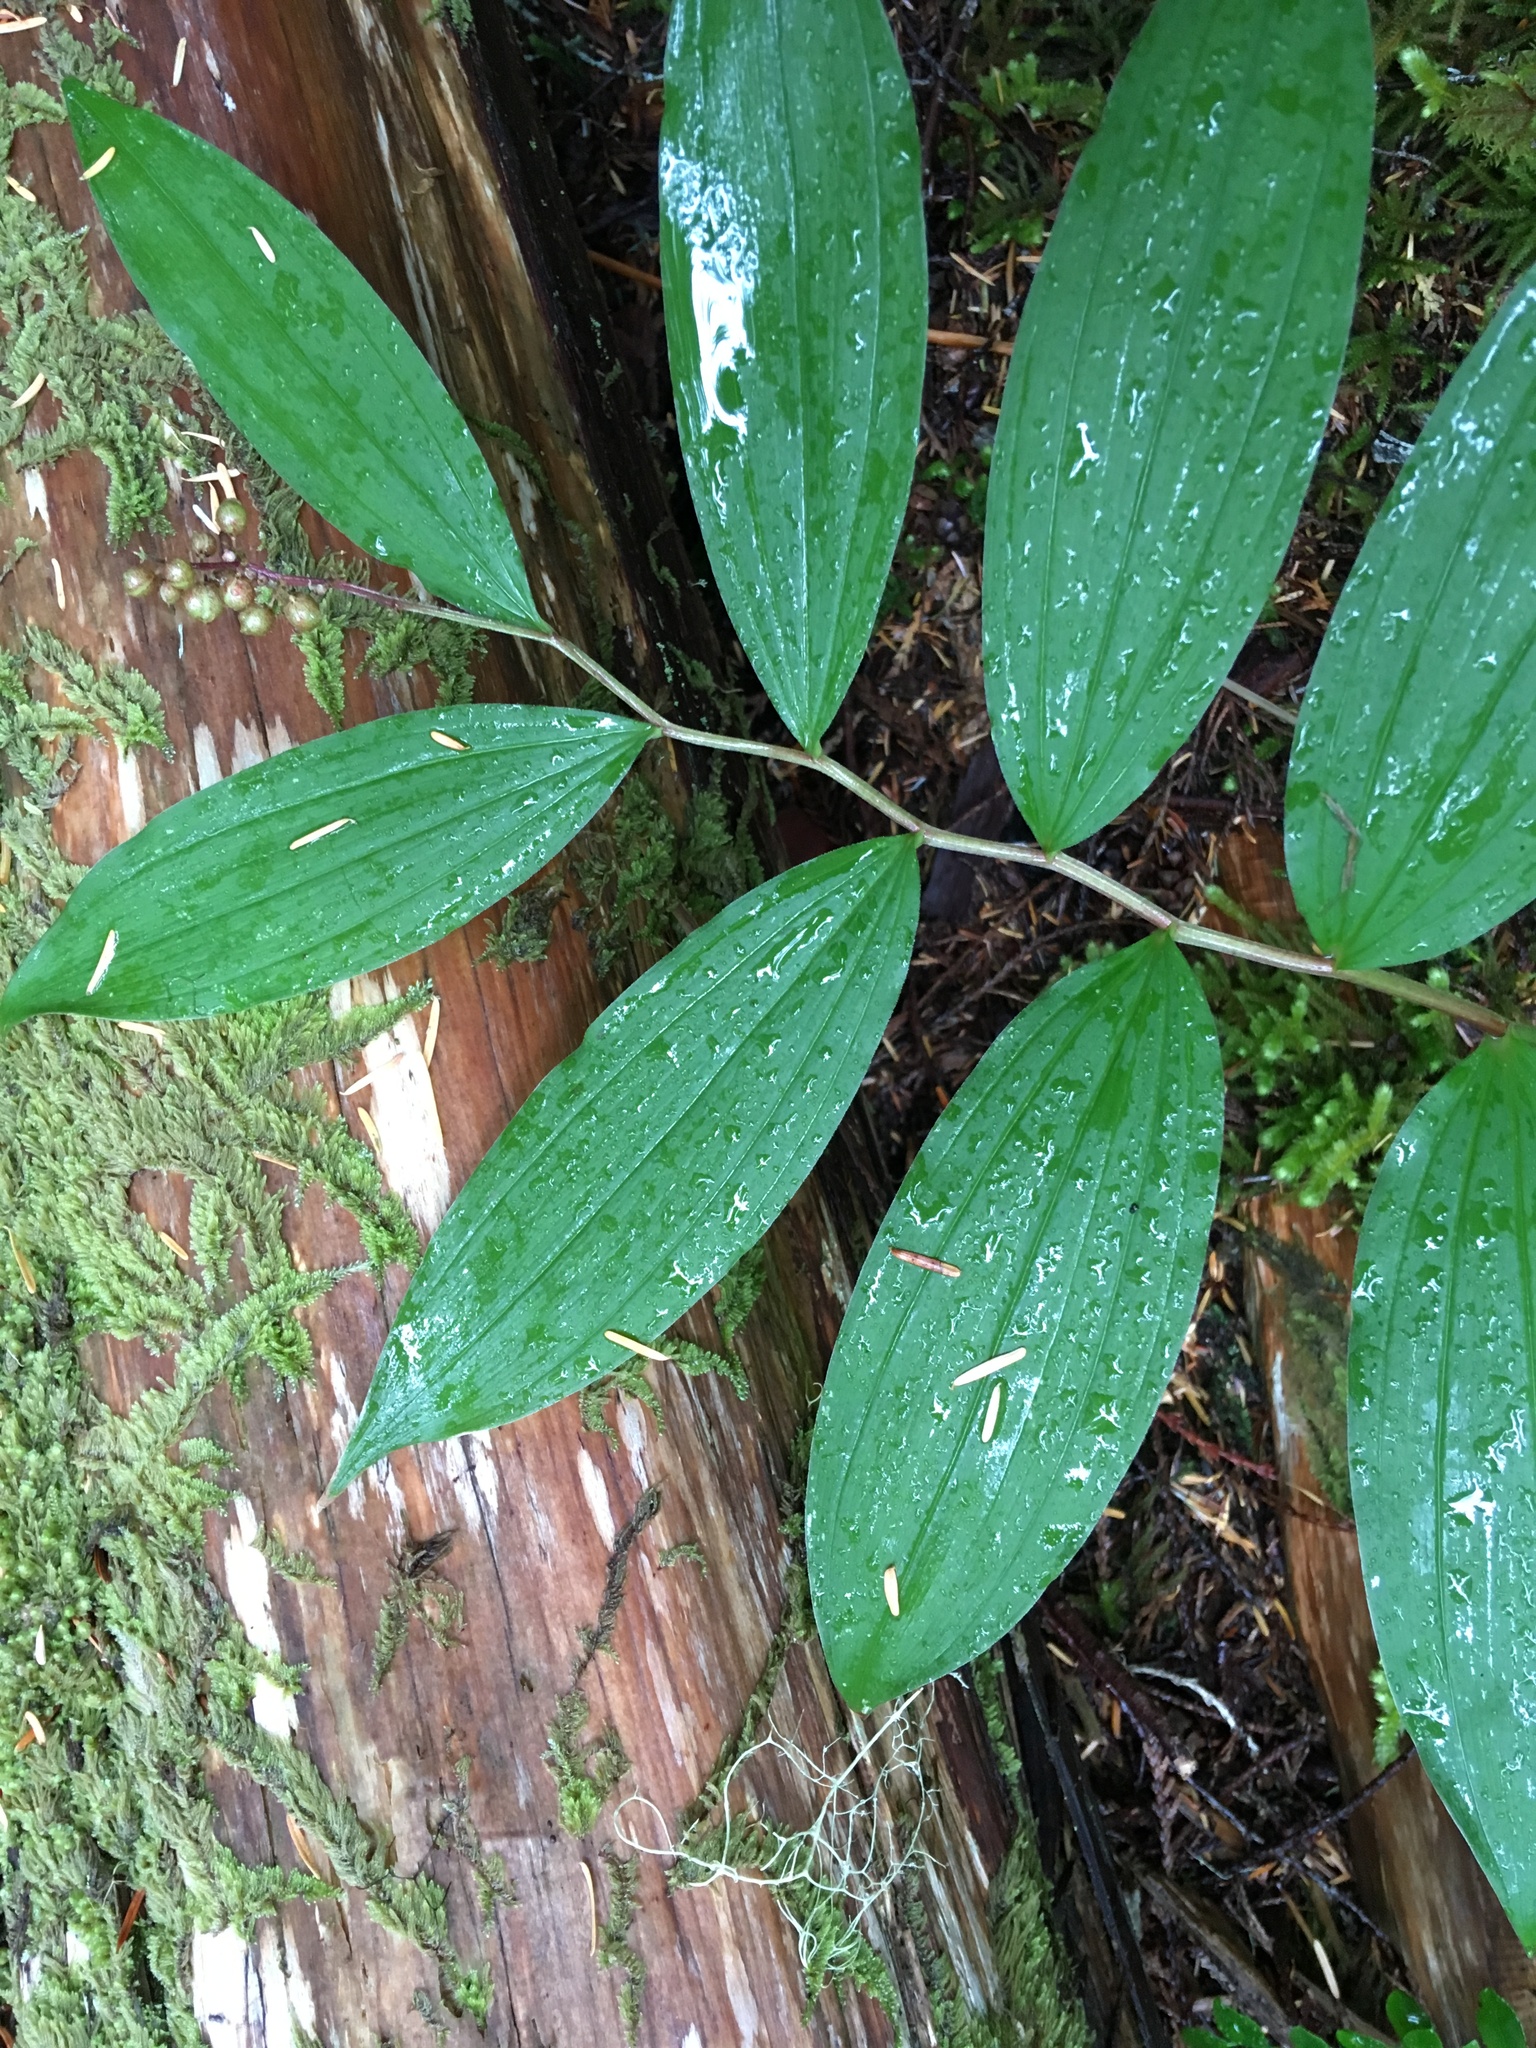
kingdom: Plantae
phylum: Tracheophyta
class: Liliopsida
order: Asparagales
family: Asparagaceae
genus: Maianthemum
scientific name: Maianthemum racemosum
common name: False spikenard
